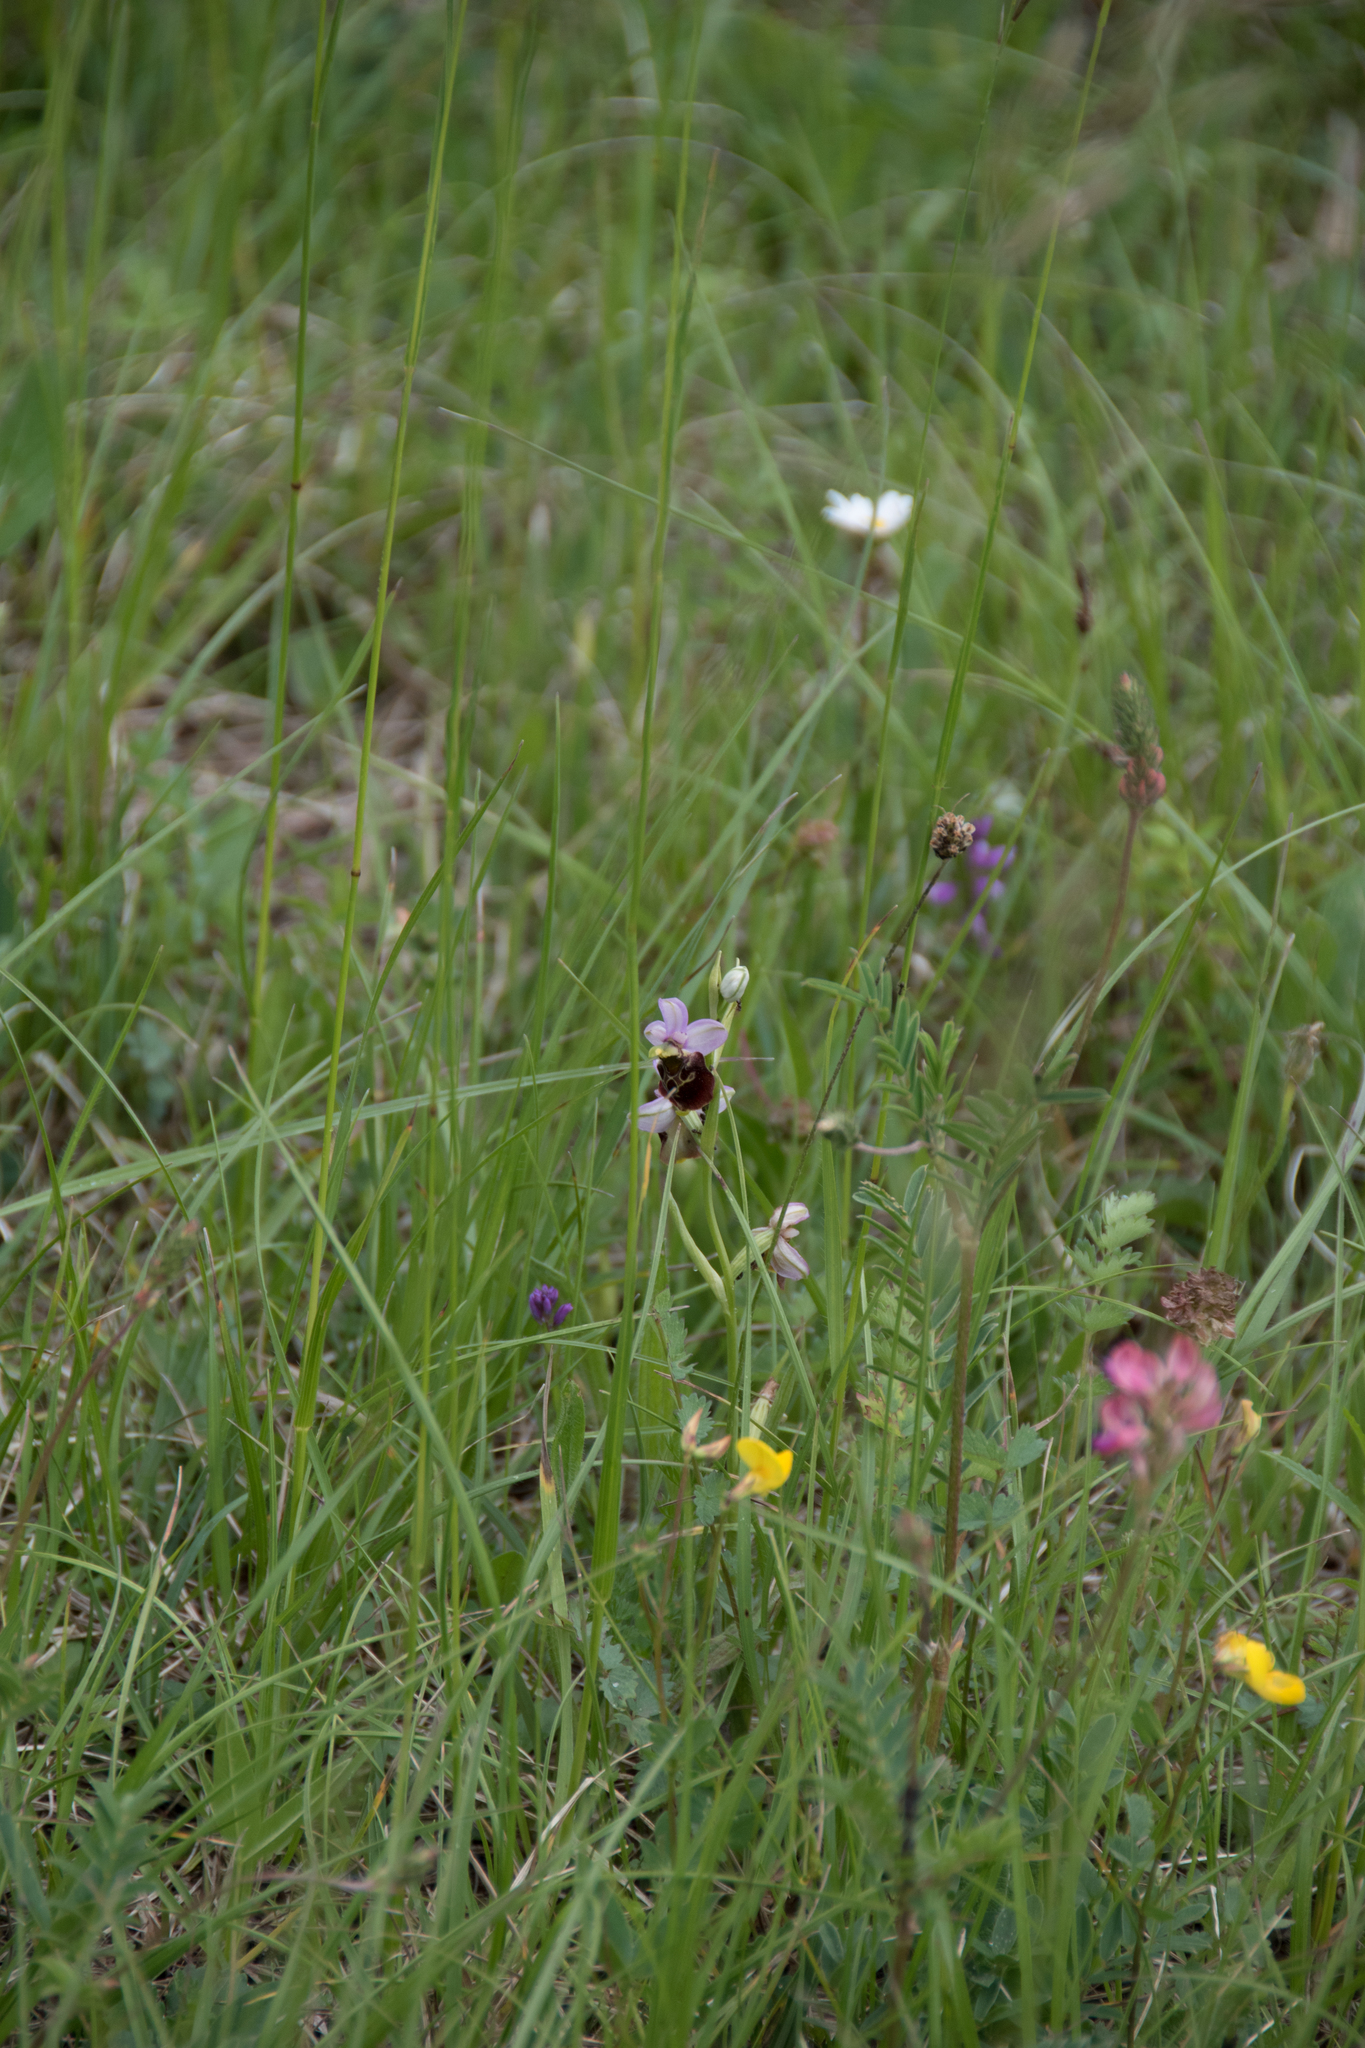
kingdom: Plantae
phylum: Tracheophyta
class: Liliopsida
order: Asparagales
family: Orchidaceae
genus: Ophrys
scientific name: Ophrys holosericea
